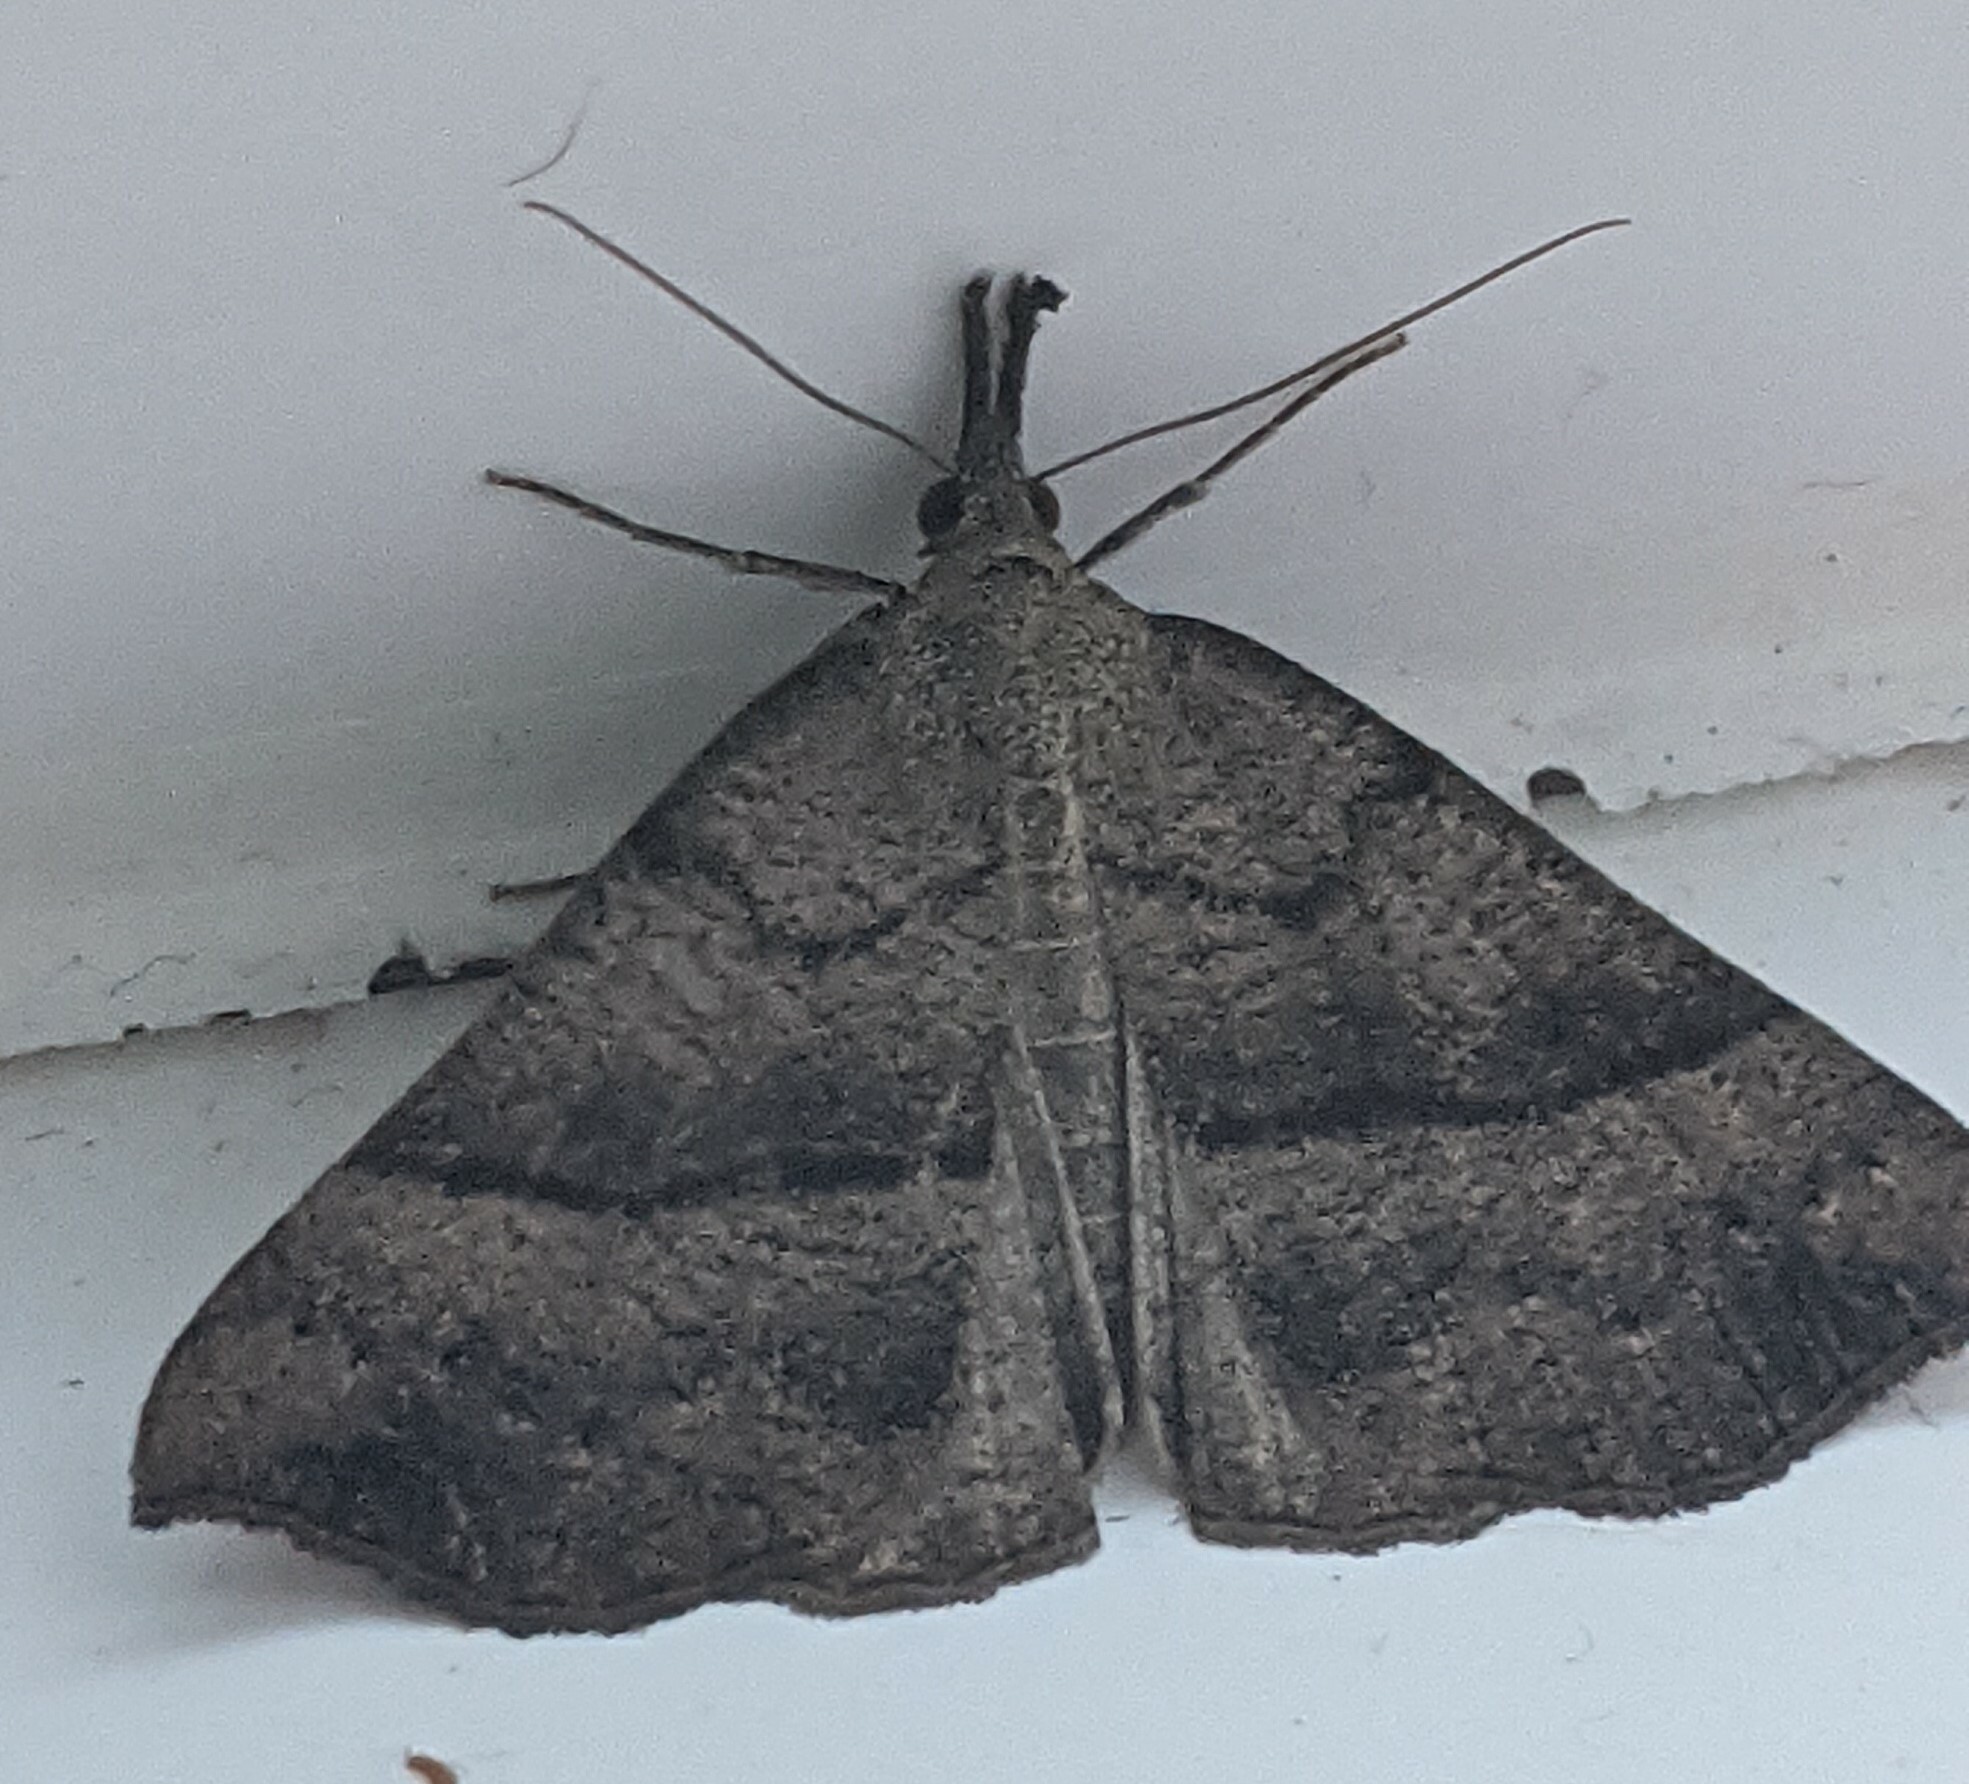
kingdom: Animalia
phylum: Arthropoda
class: Insecta
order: Lepidoptera
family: Erebidae
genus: Hypena
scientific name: Hypena proboscidalis
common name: Snout
